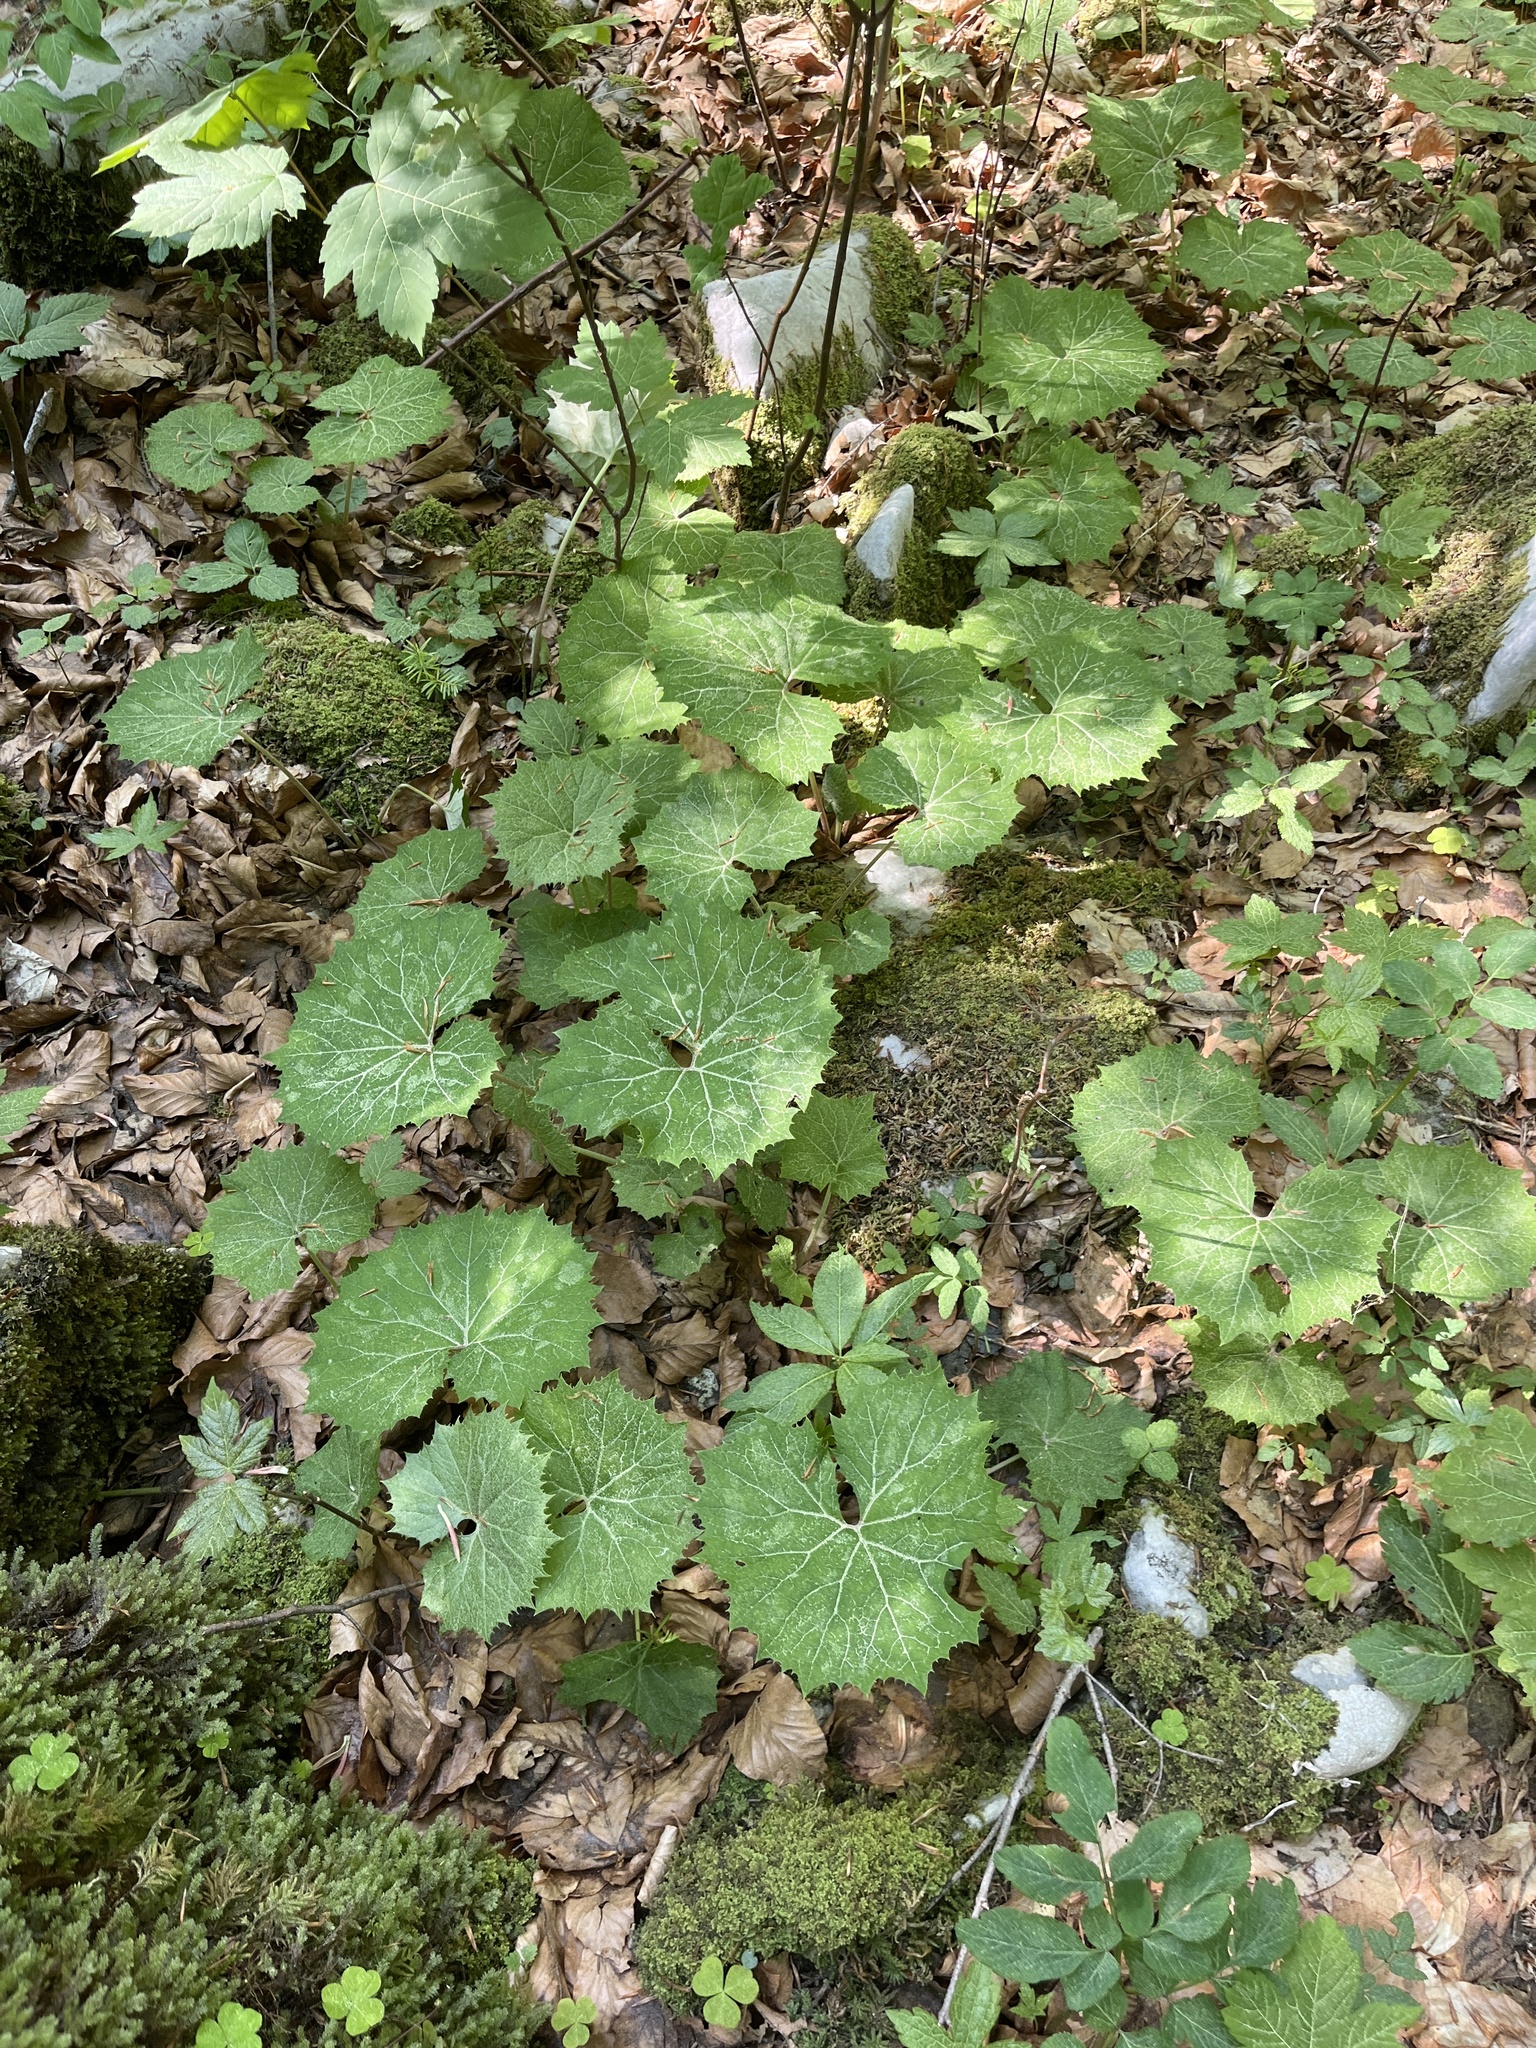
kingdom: Plantae
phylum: Tracheophyta
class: Magnoliopsida
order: Asterales
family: Asteraceae
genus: Petasites
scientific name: Petasites albus
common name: White butterbur
